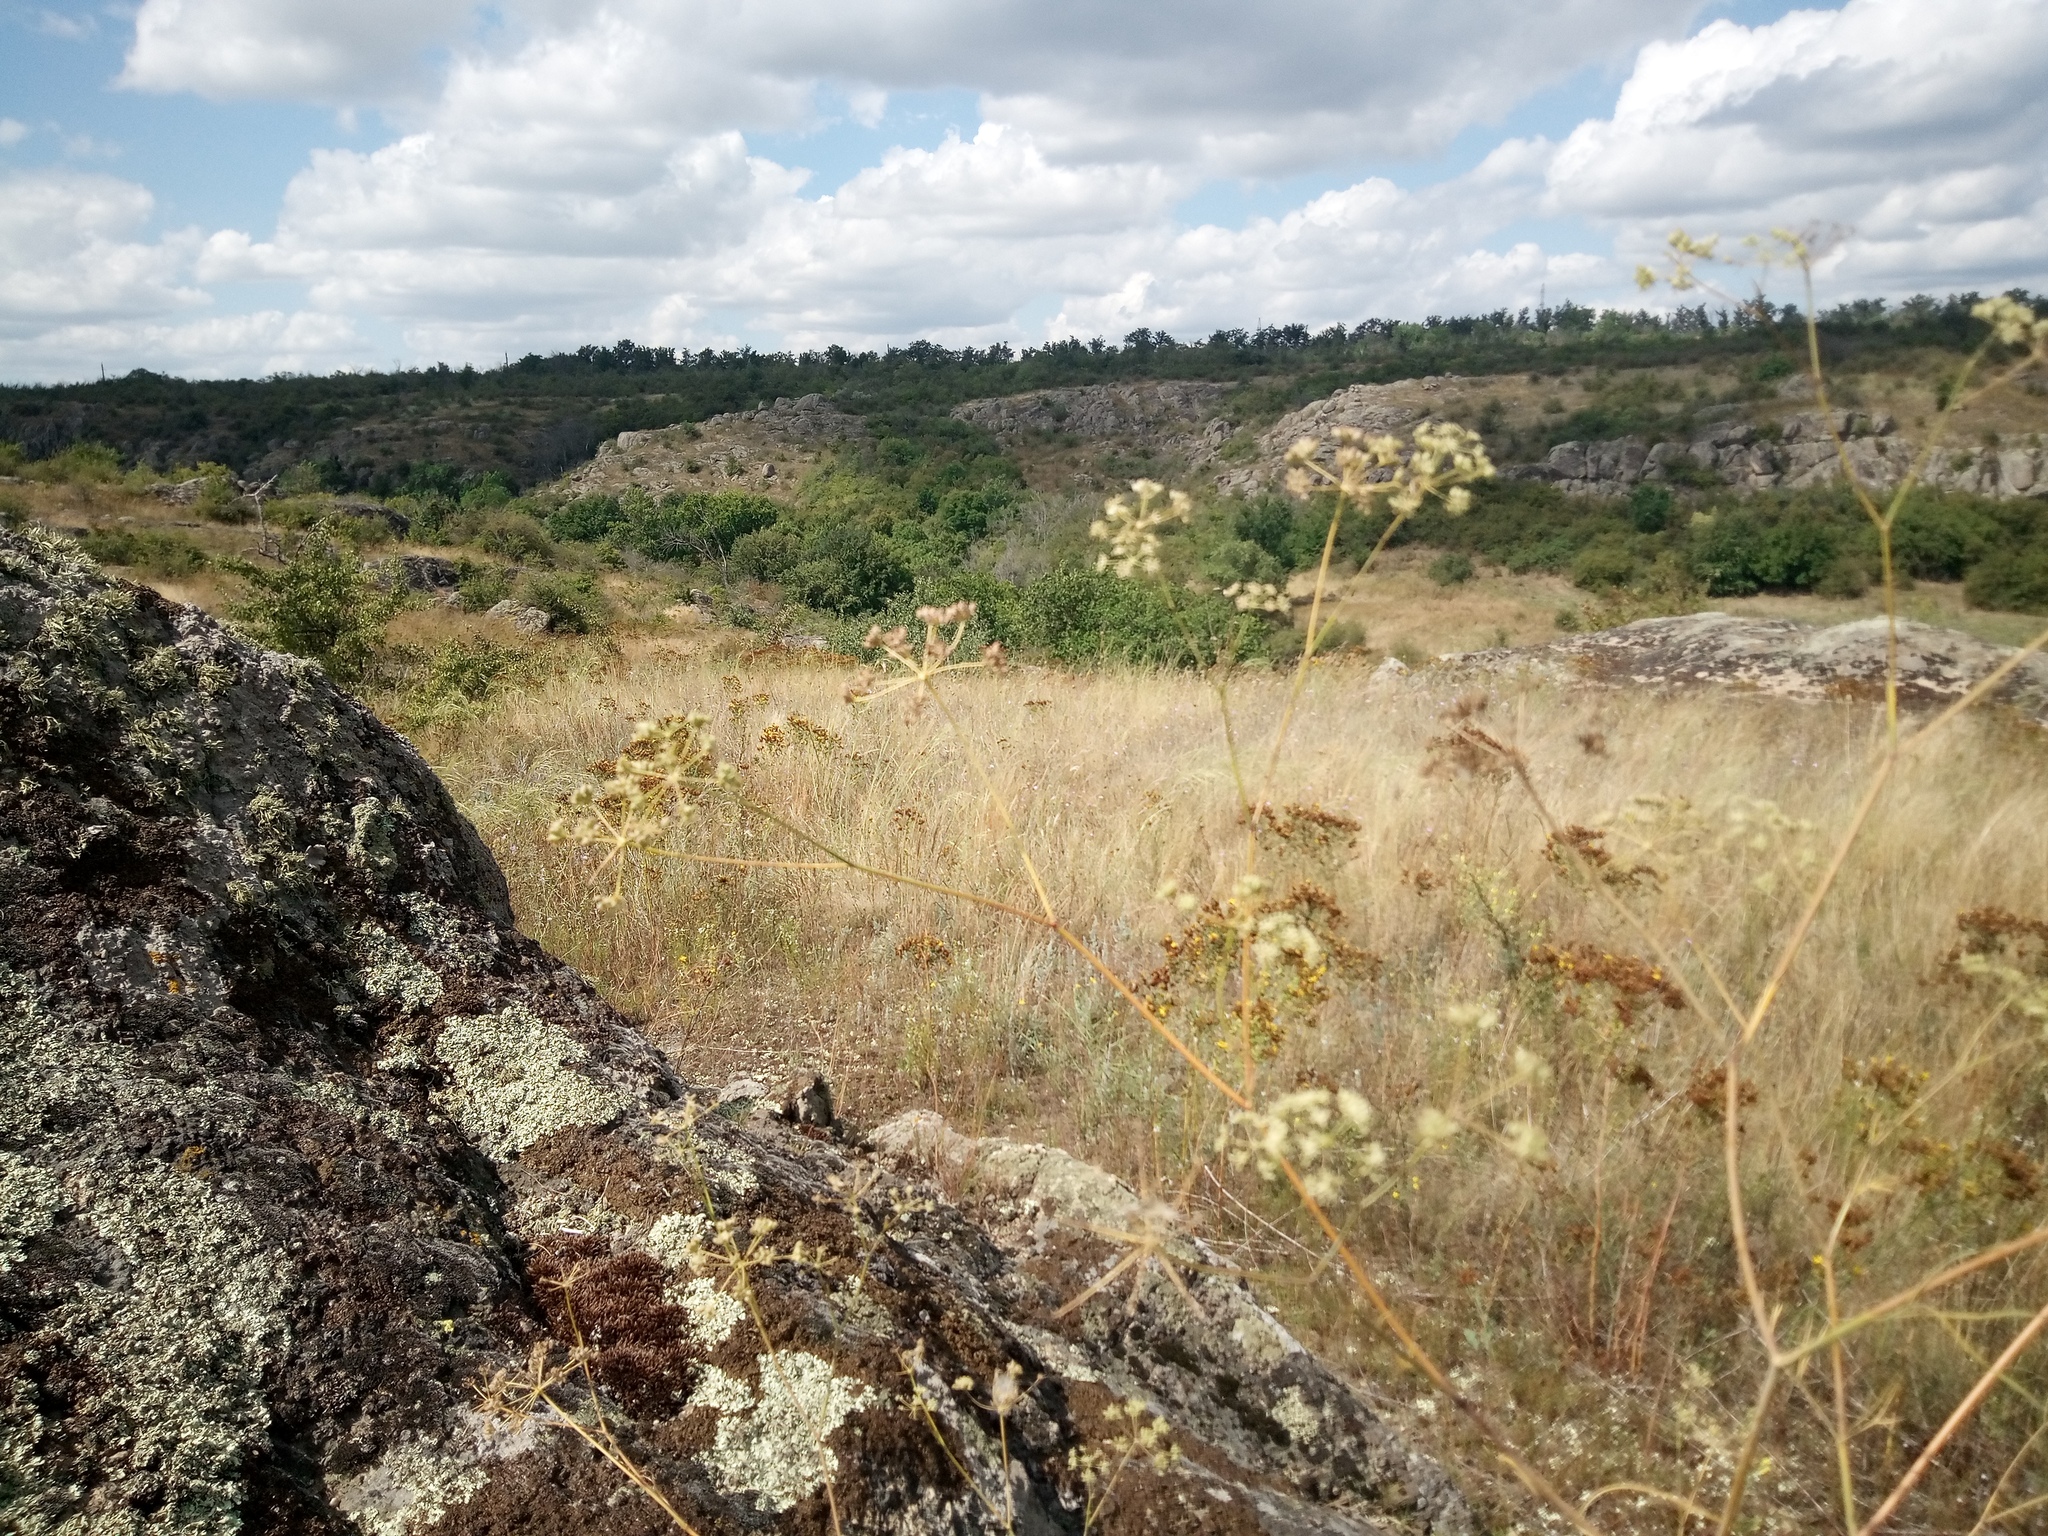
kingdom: Plantae
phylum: Tracheophyta
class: Magnoliopsida
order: Apiales
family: Apiaceae
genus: Seseli
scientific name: Seseli pallasii
